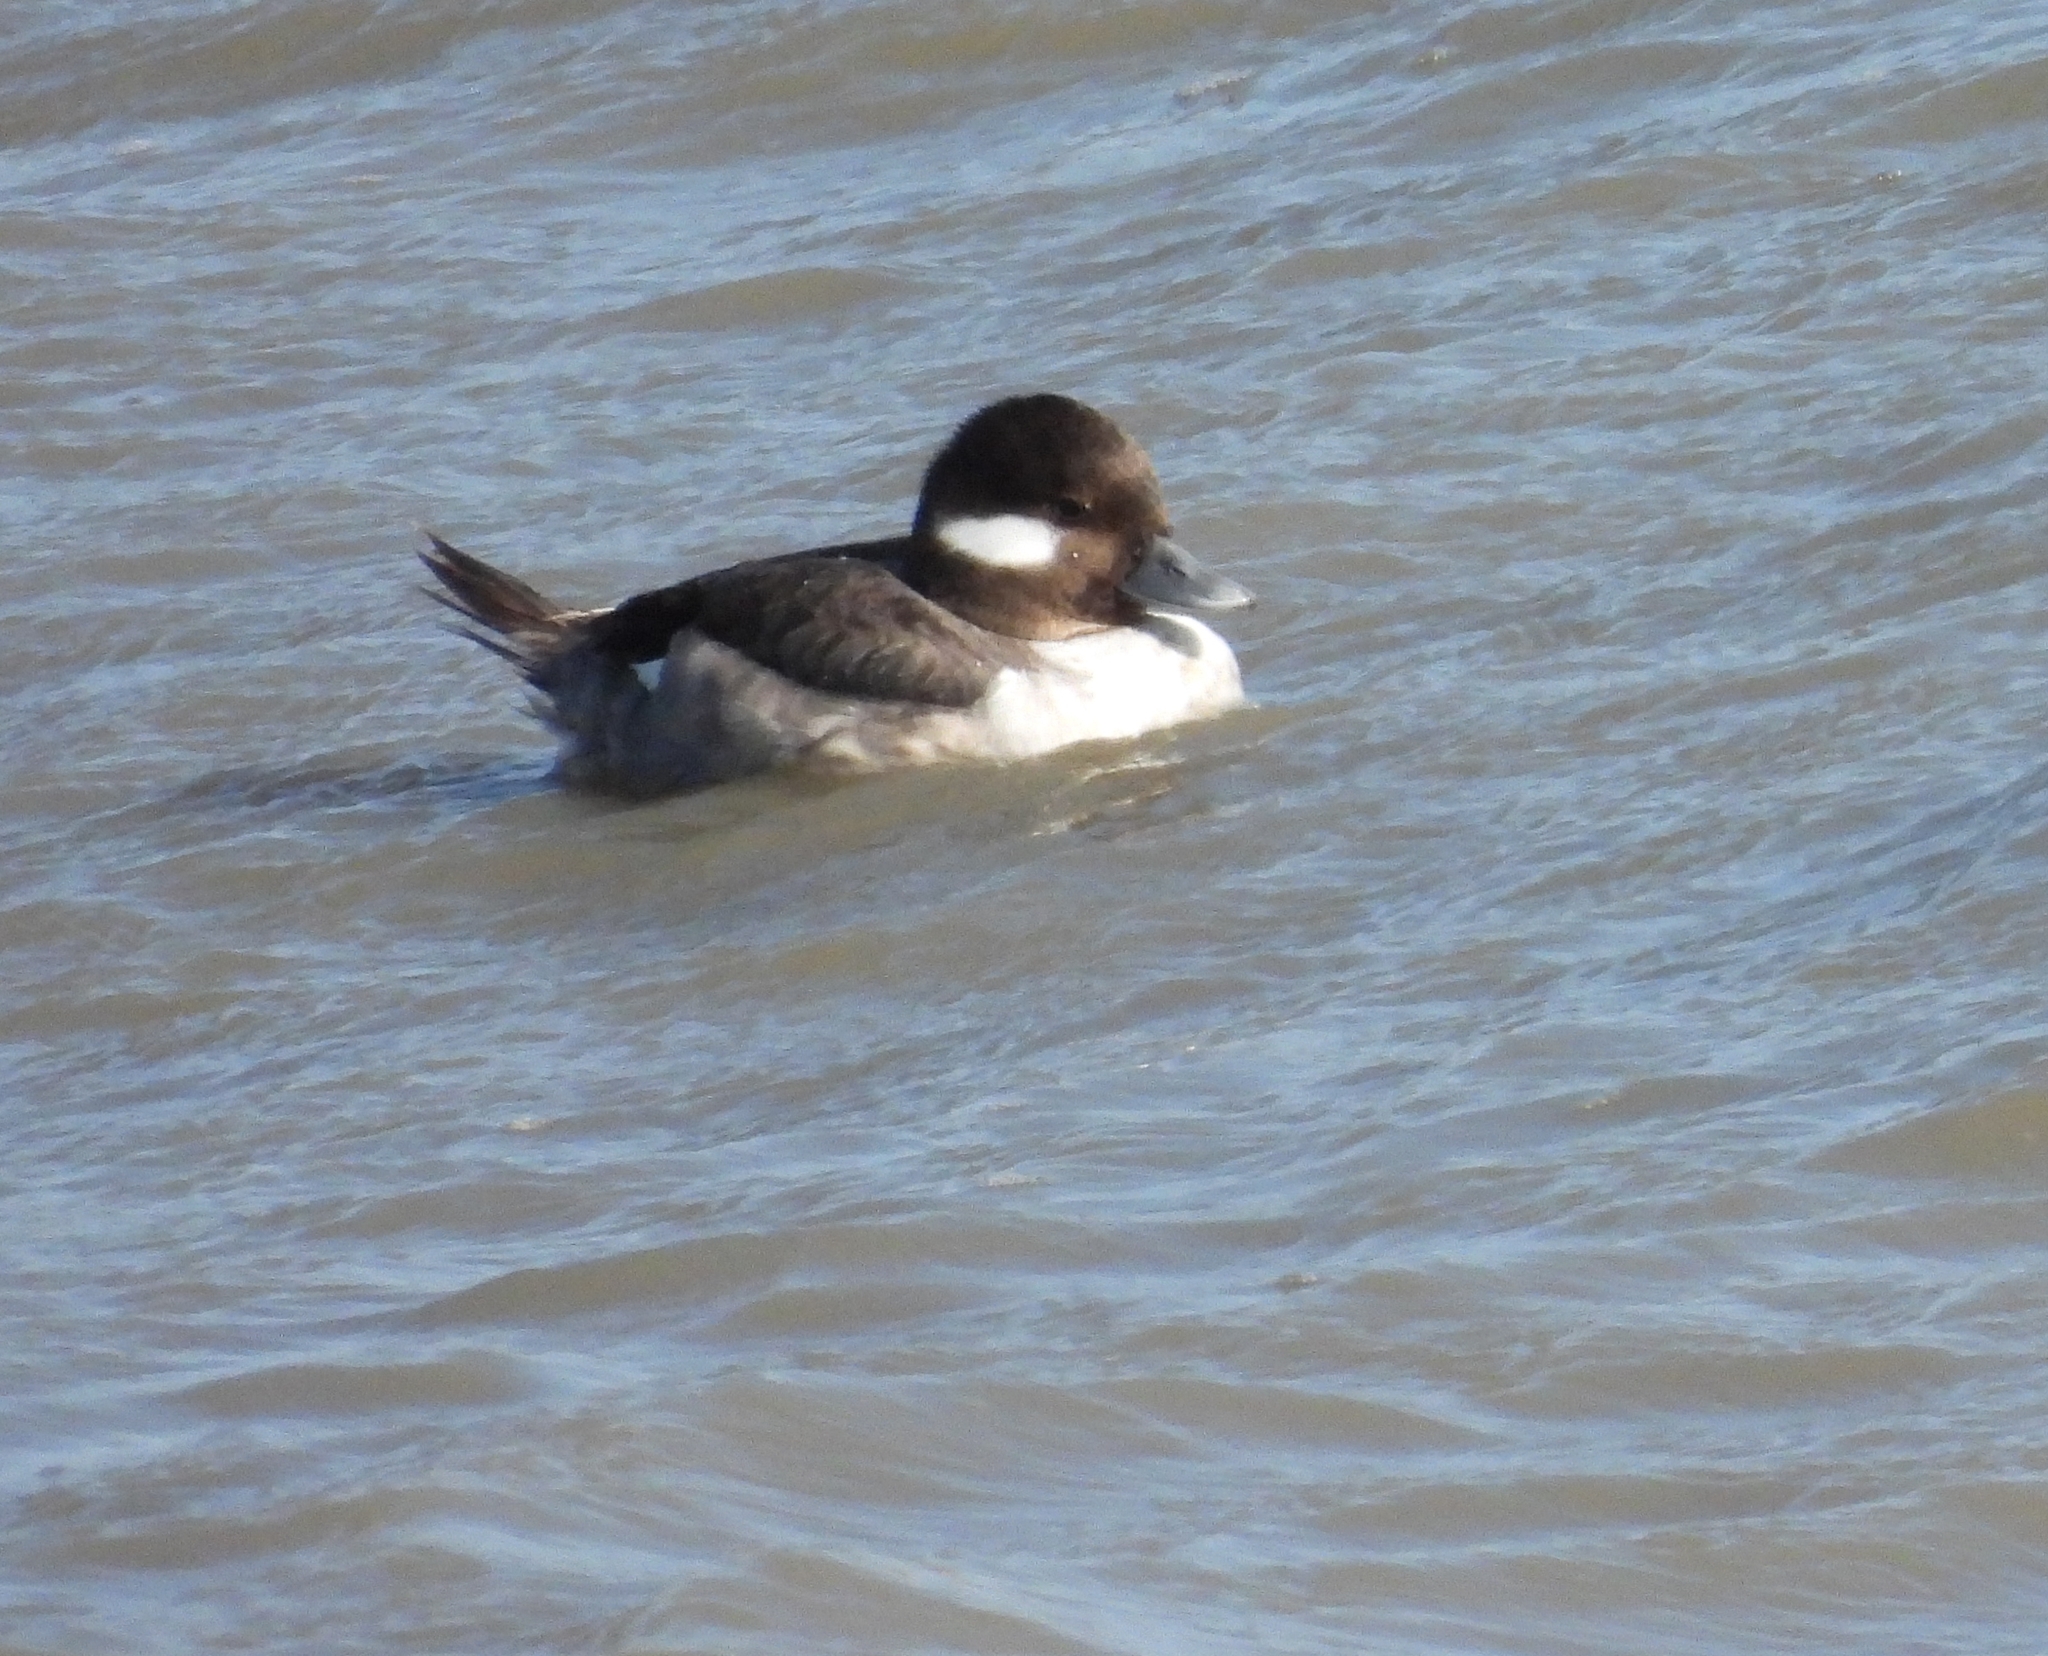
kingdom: Animalia
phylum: Chordata
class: Aves
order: Anseriformes
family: Anatidae
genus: Bucephala
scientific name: Bucephala albeola
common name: Bufflehead
